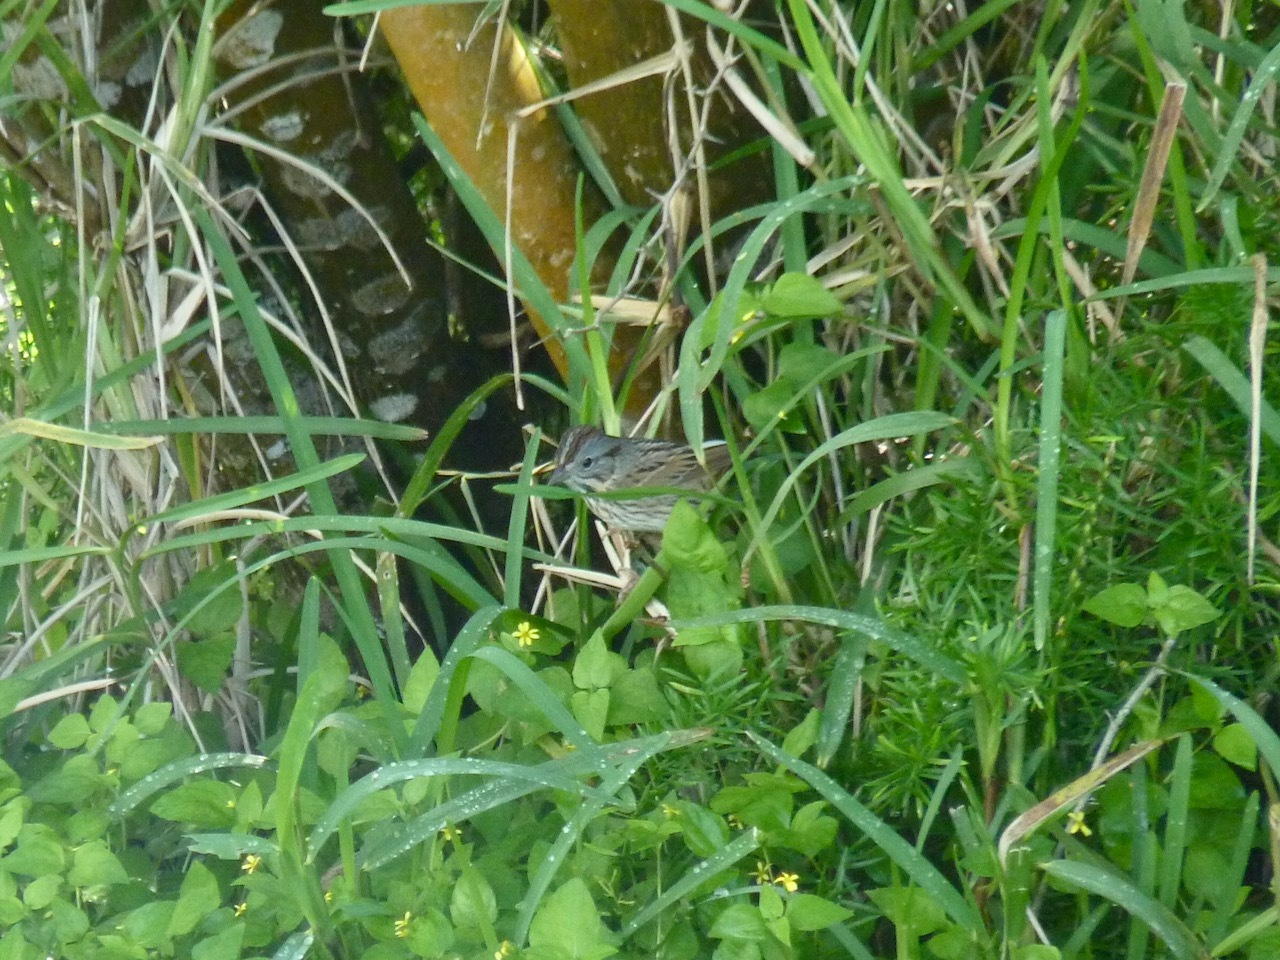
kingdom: Animalia
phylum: Chordata
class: Aves
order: Passeriformes
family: Passerellidae
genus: Melospiza
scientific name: Melospiza lincolnii
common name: Lincoln's sparrow
